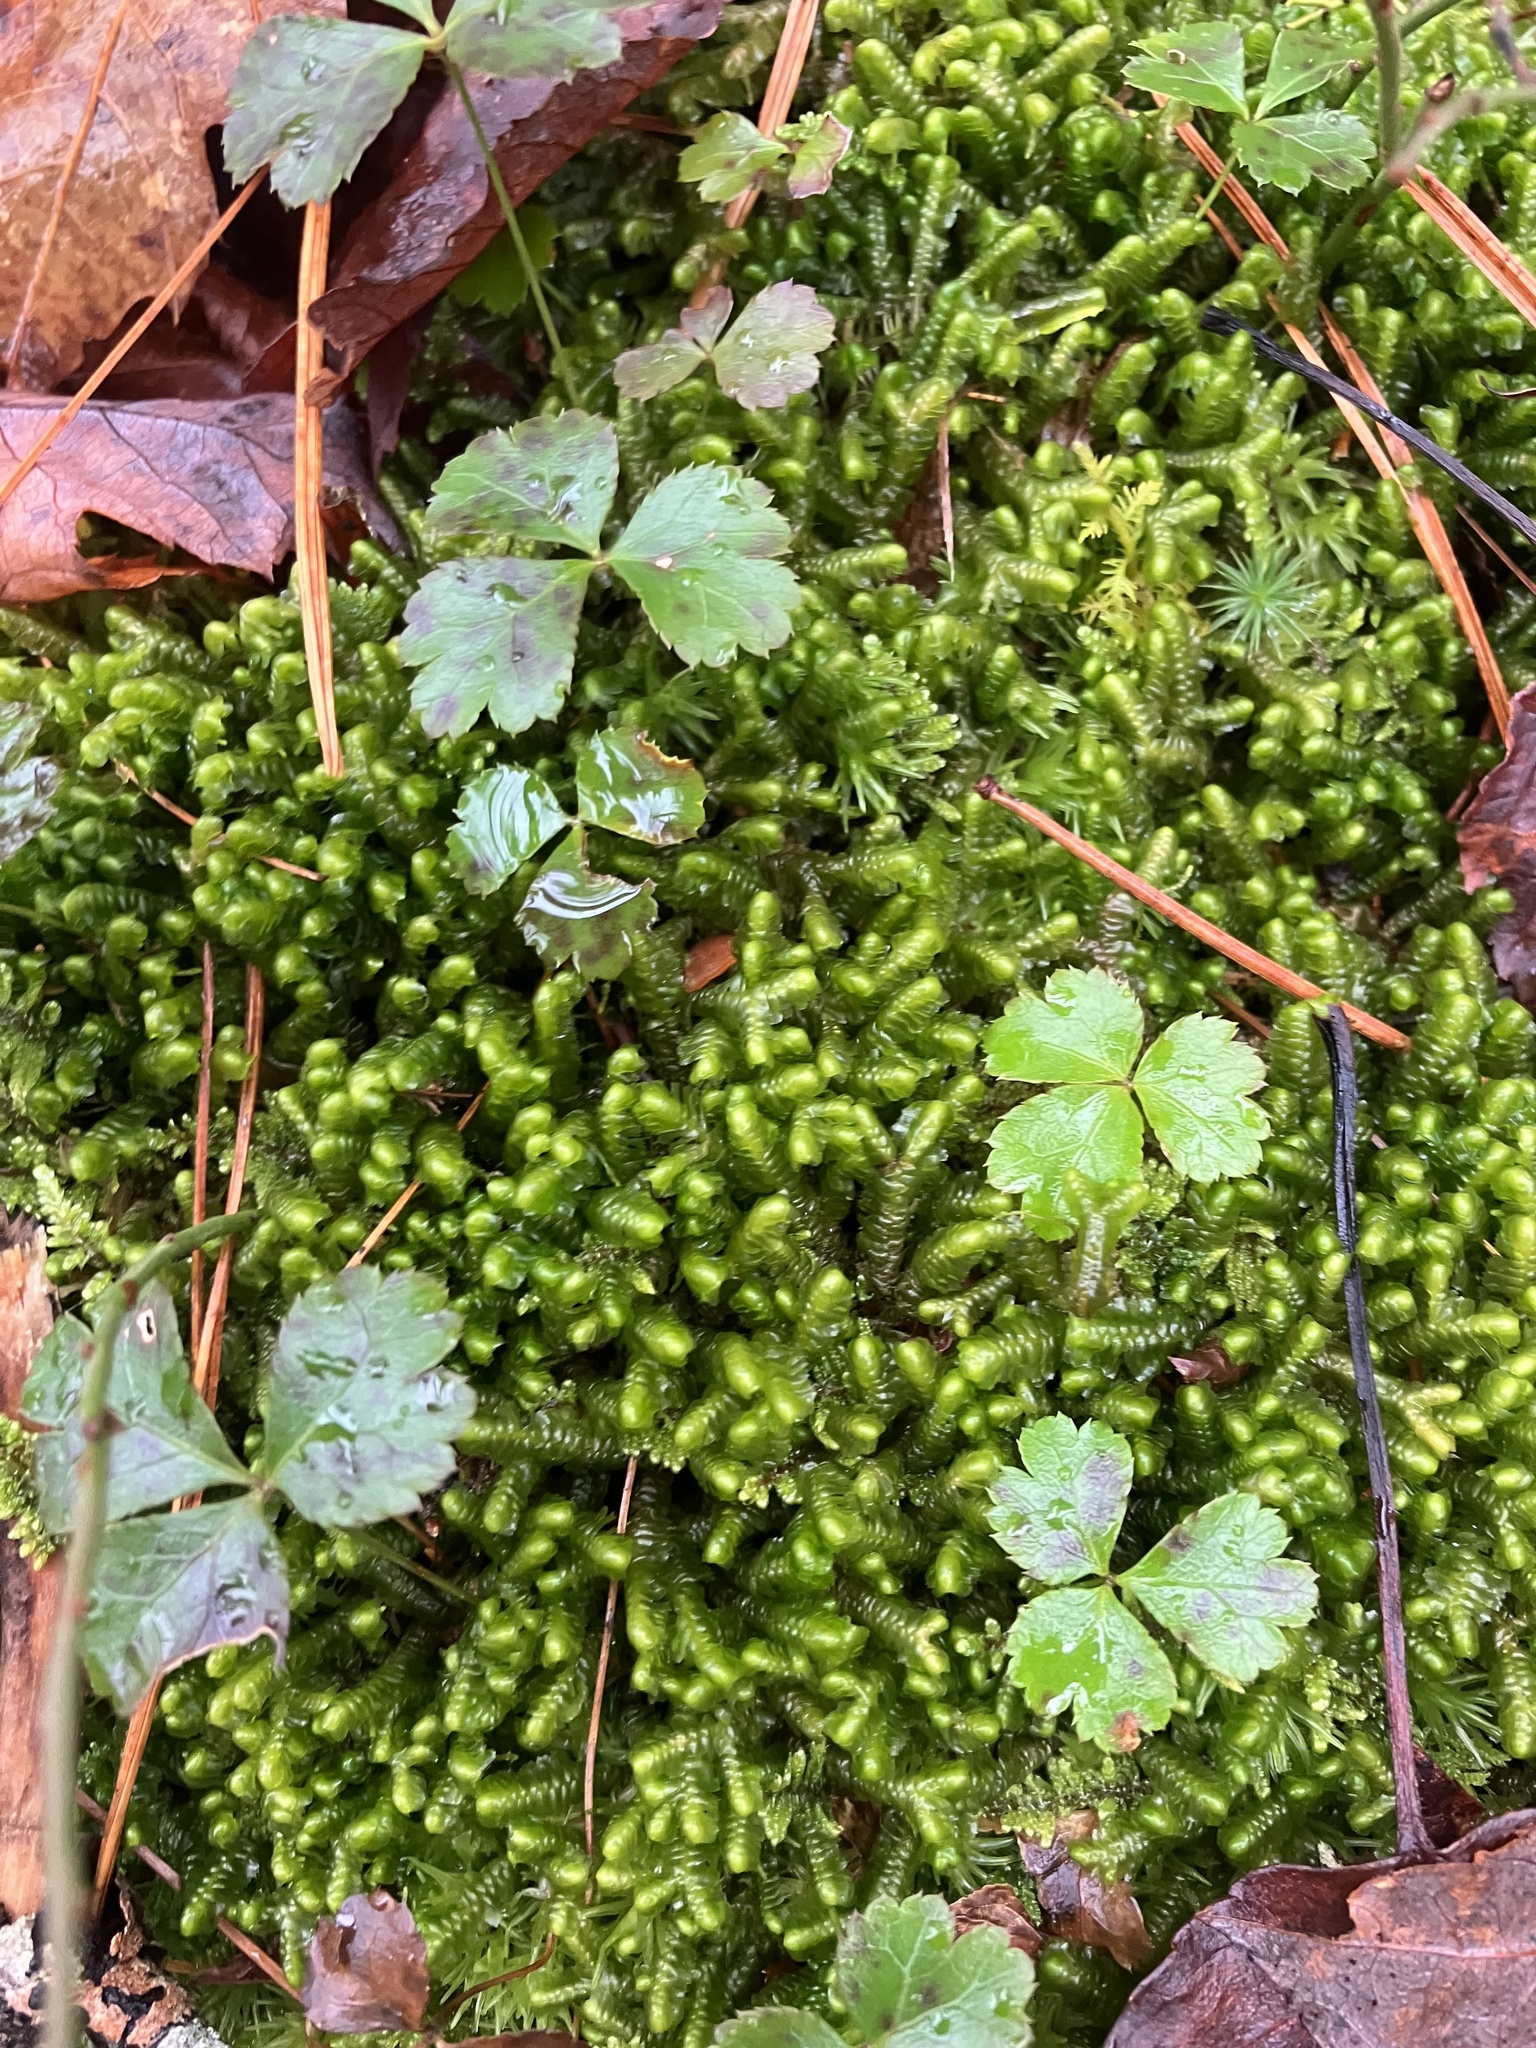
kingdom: Plantae
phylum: Tracheophyta
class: Magnoliopsida
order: Ranunculales
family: Ranunculaceae
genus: Coptis
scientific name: Coptis trifolia
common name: Canker-root
